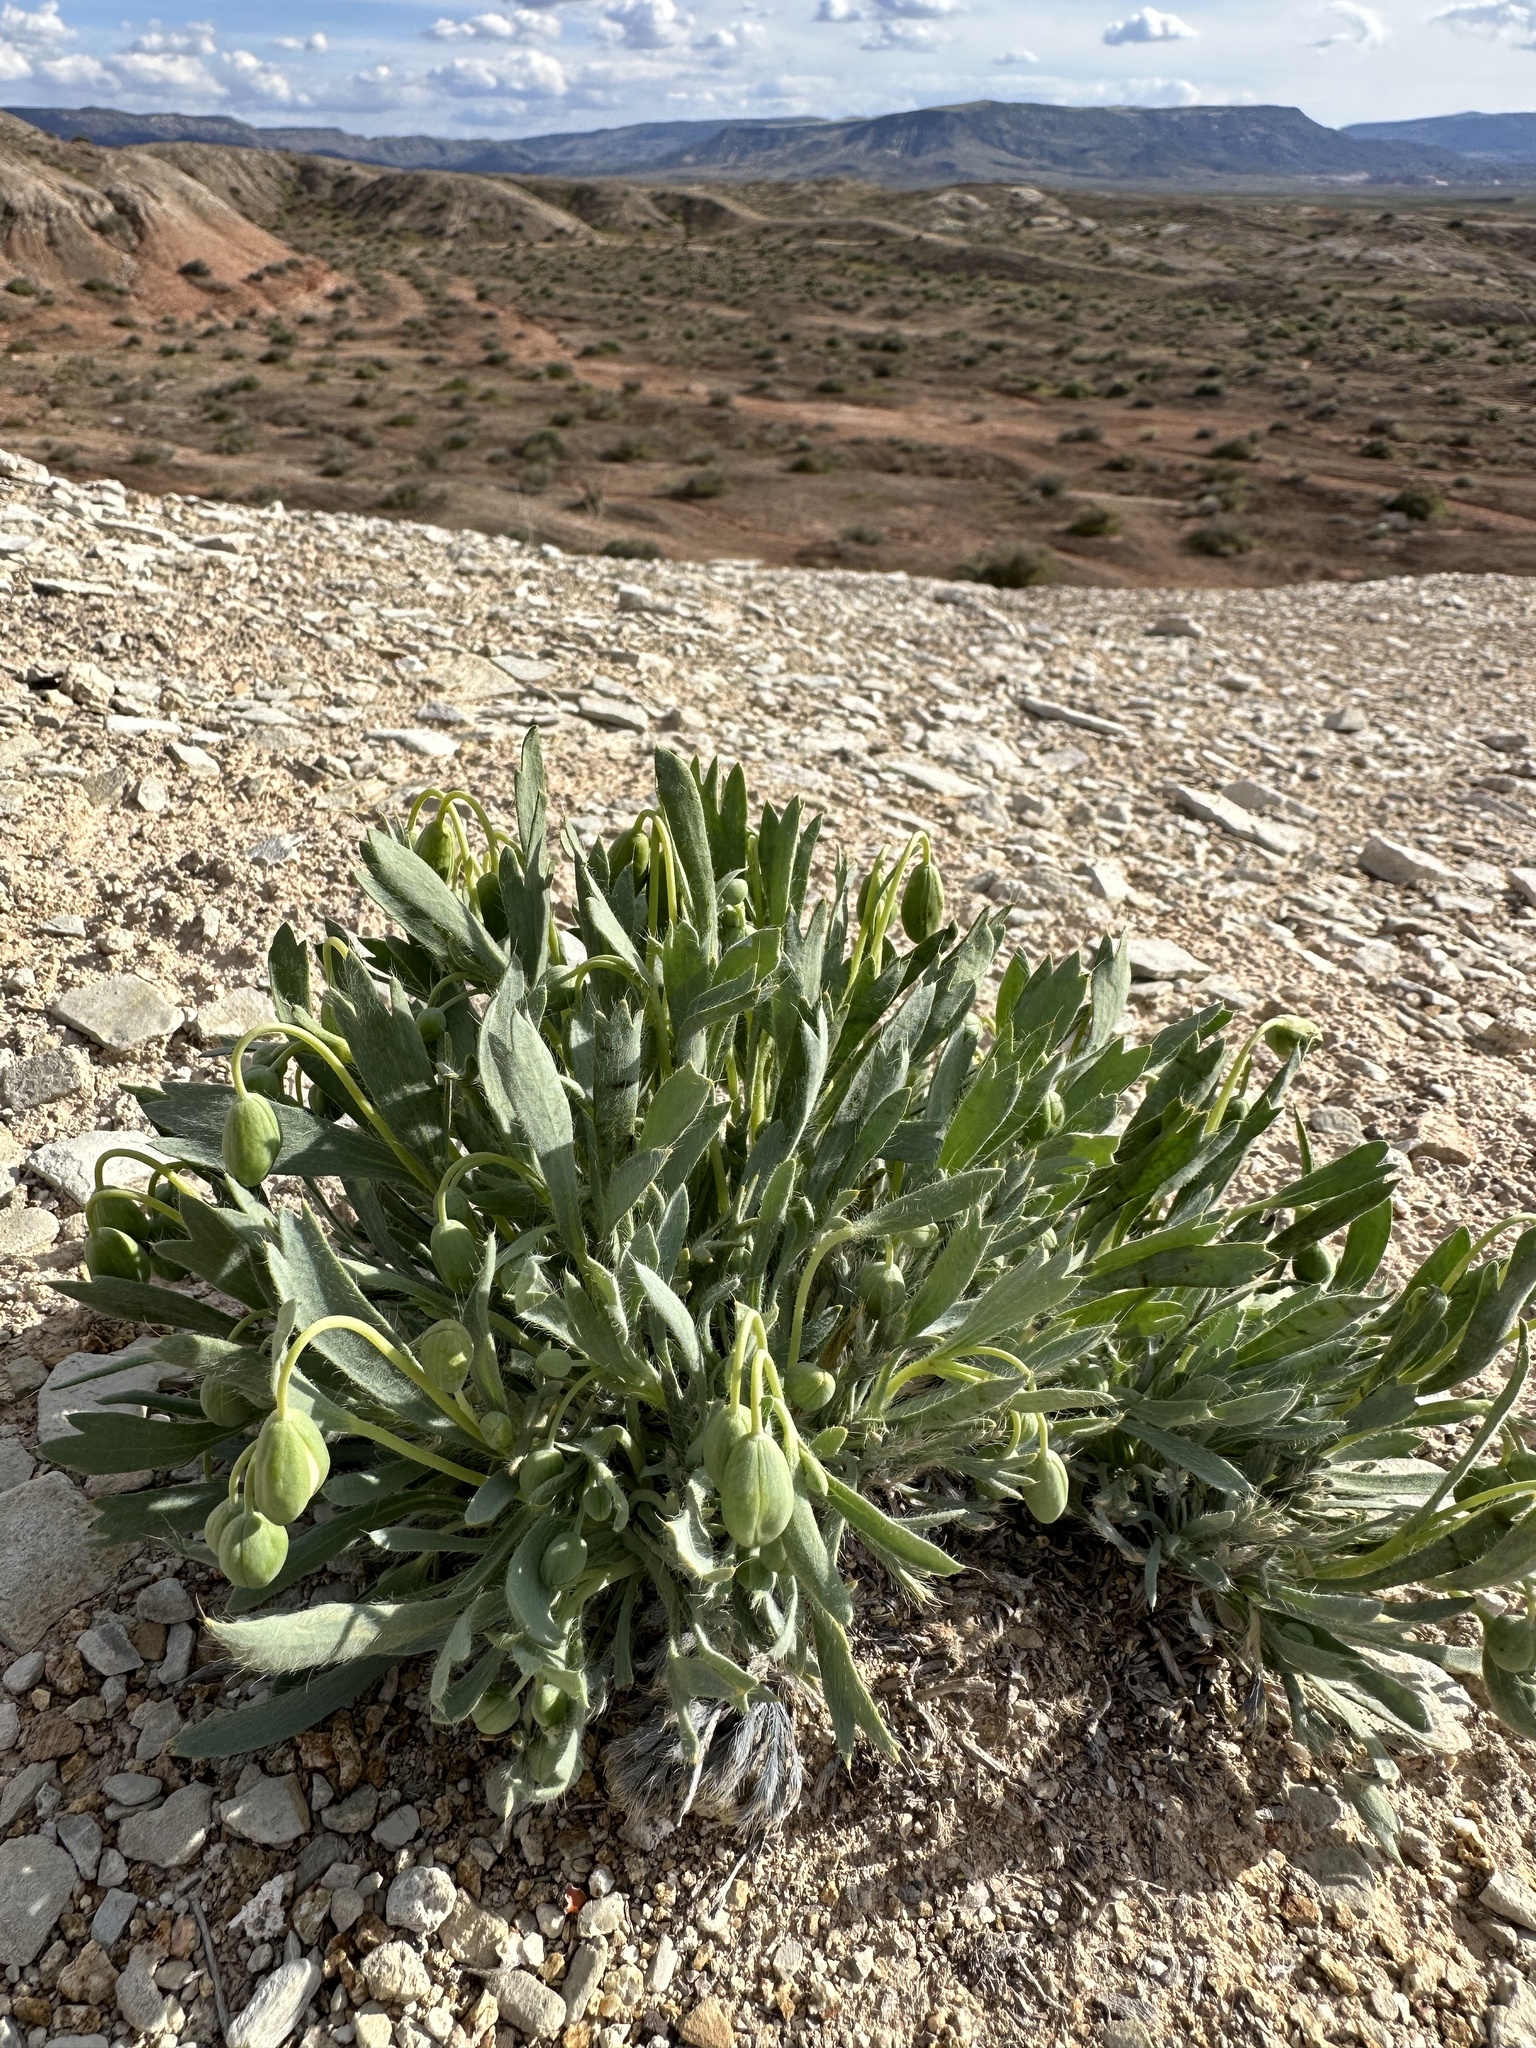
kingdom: Plantae
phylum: Tracheophyta
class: Magnoliopsida
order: Ranunculales
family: Papaveraceae
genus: Arctomecon
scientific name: Arctomecon humilis
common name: Dwarf bear-poppy
